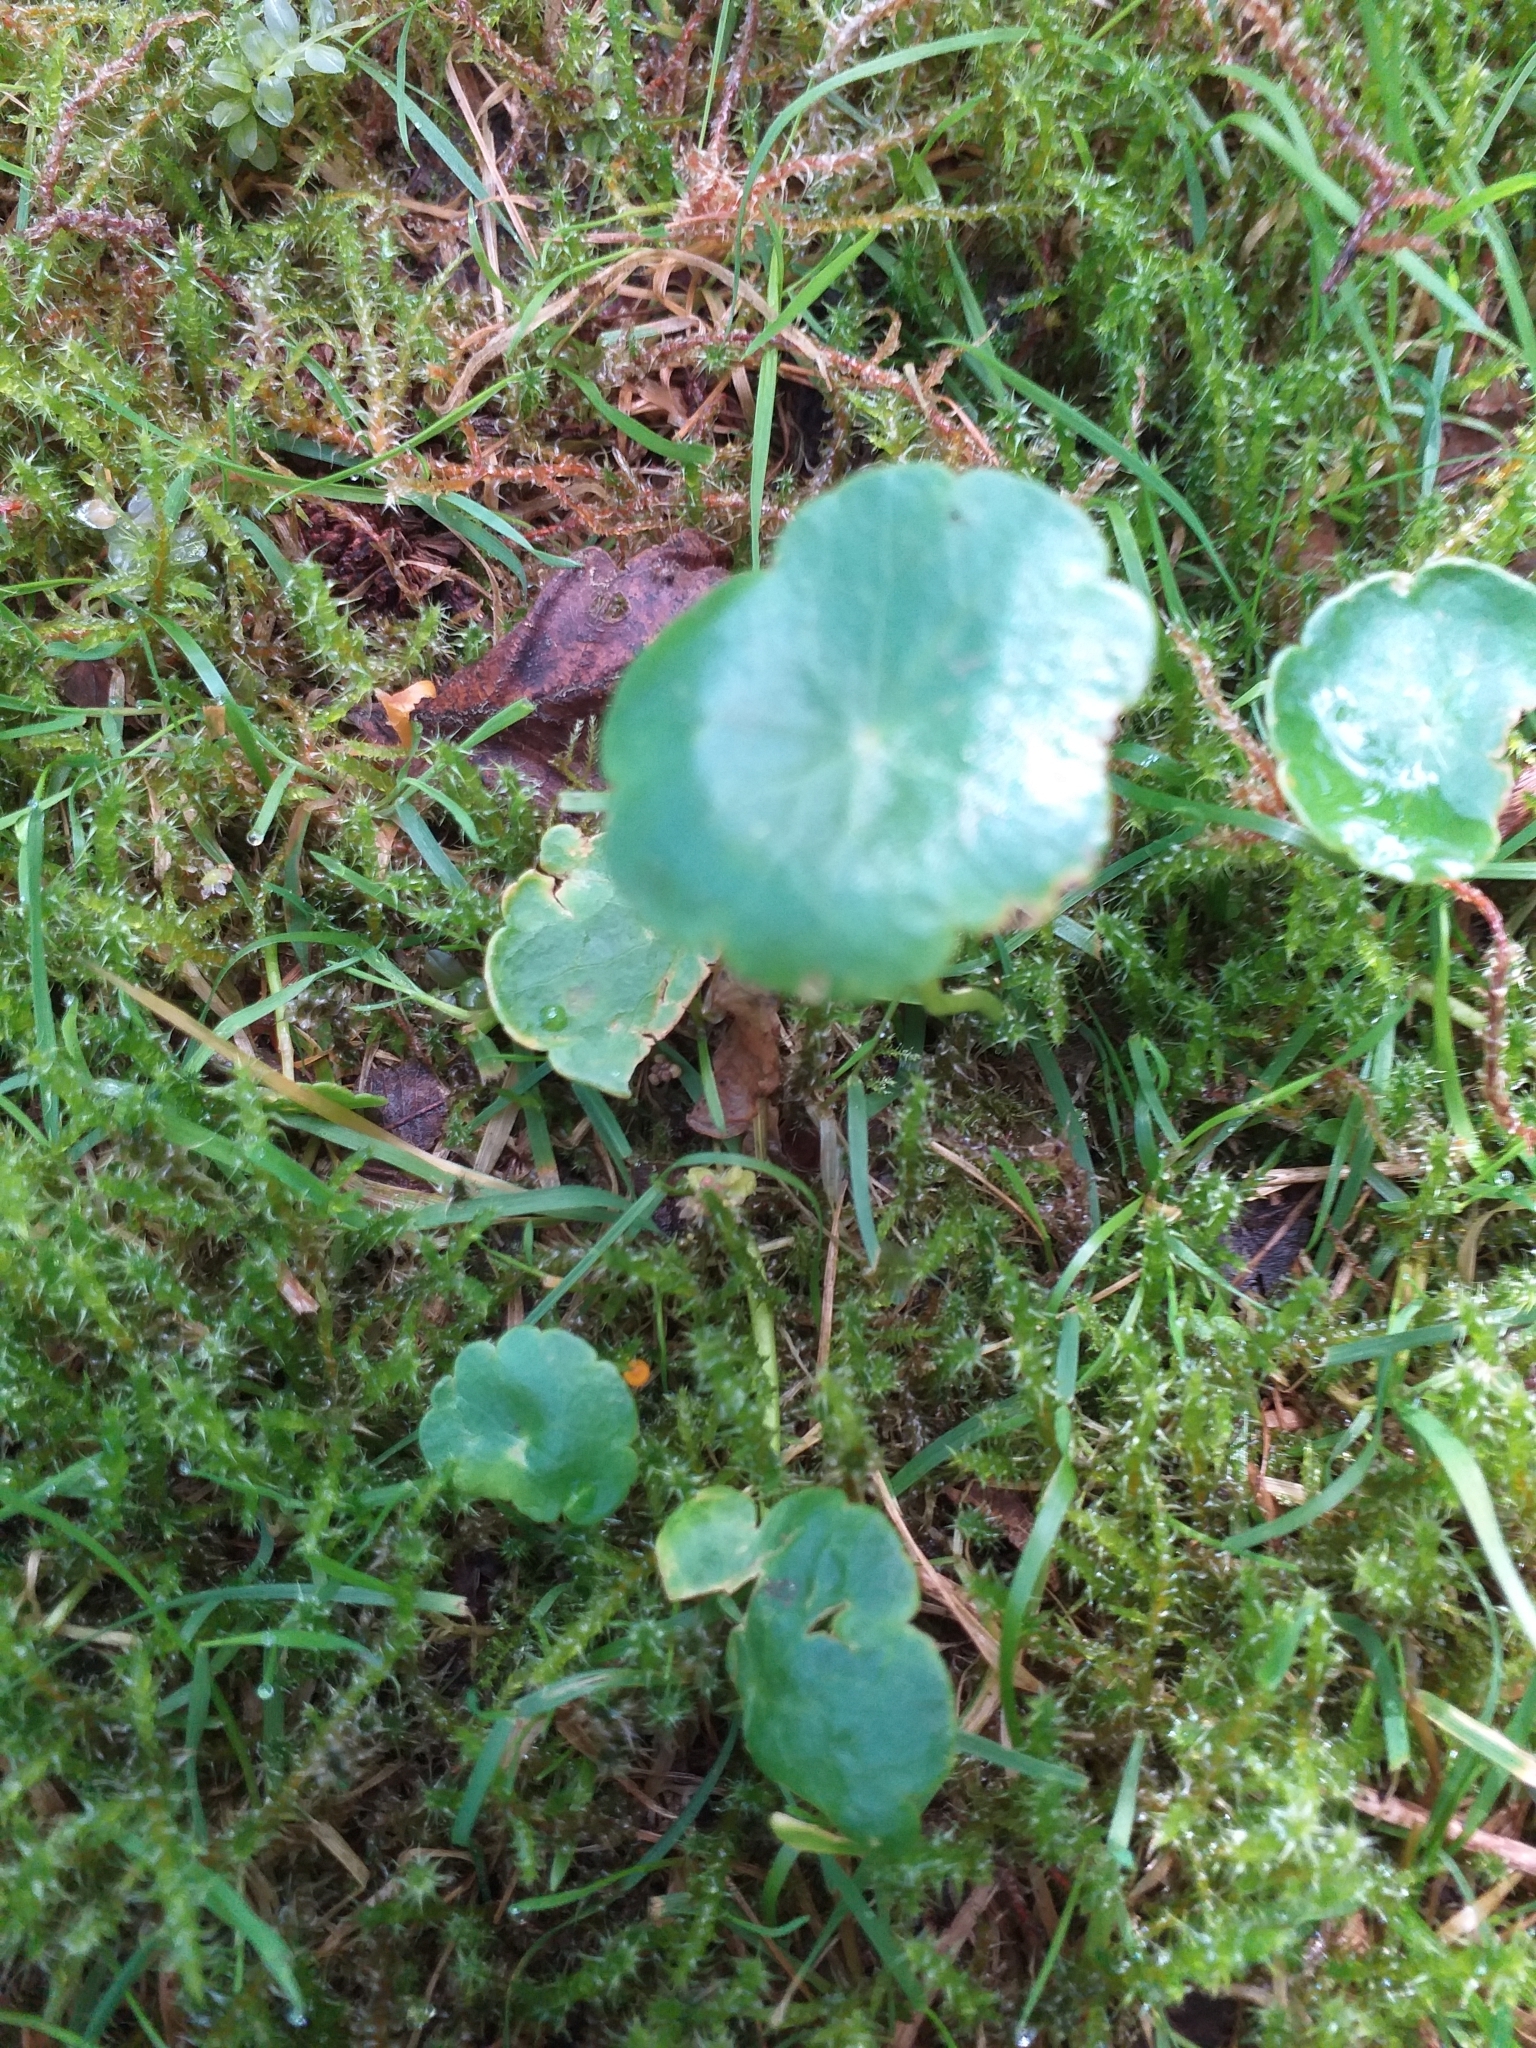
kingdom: Plantae
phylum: Tracheophyta
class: Magnoliopsida
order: Apiales
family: Araliaceae
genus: Hydrocotyle
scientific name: Hydrocotyle vulgaris
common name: Marsh pennywort
